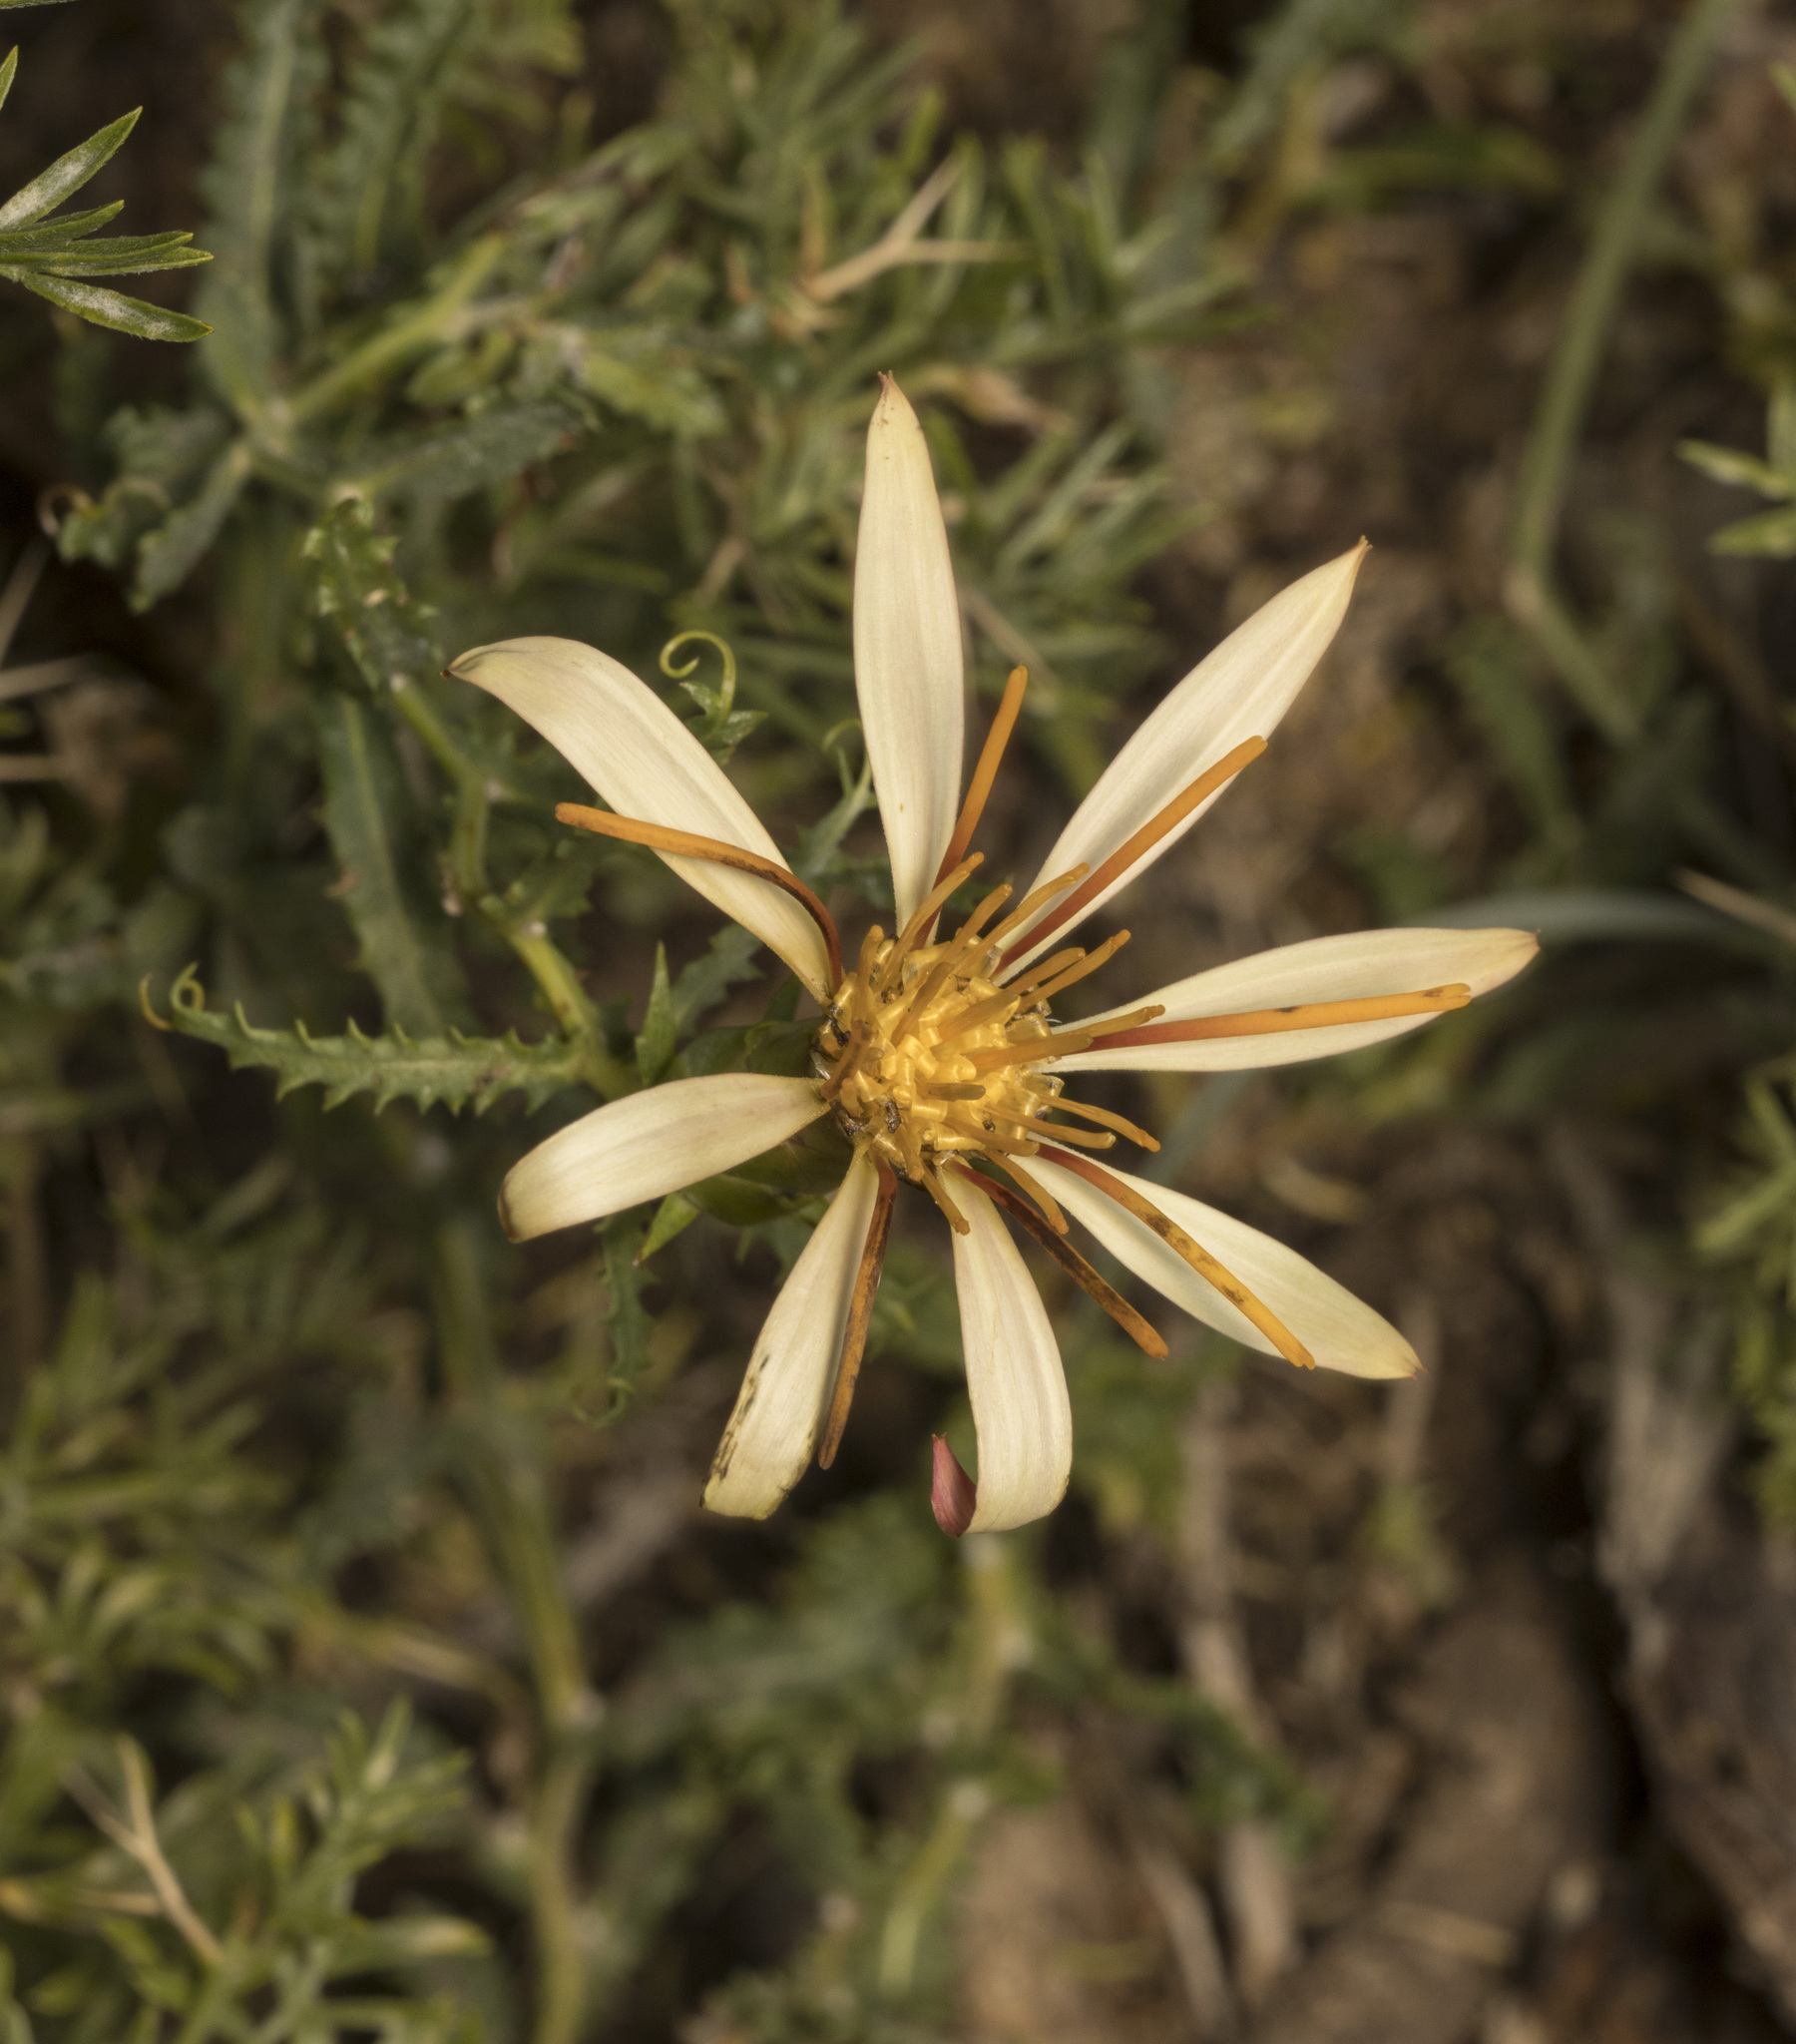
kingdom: Plantae
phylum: Tracheophyta
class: Magnoliopsida
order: Asterales
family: Asteraceae
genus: Mutisia
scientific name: Mutisia sinuata
